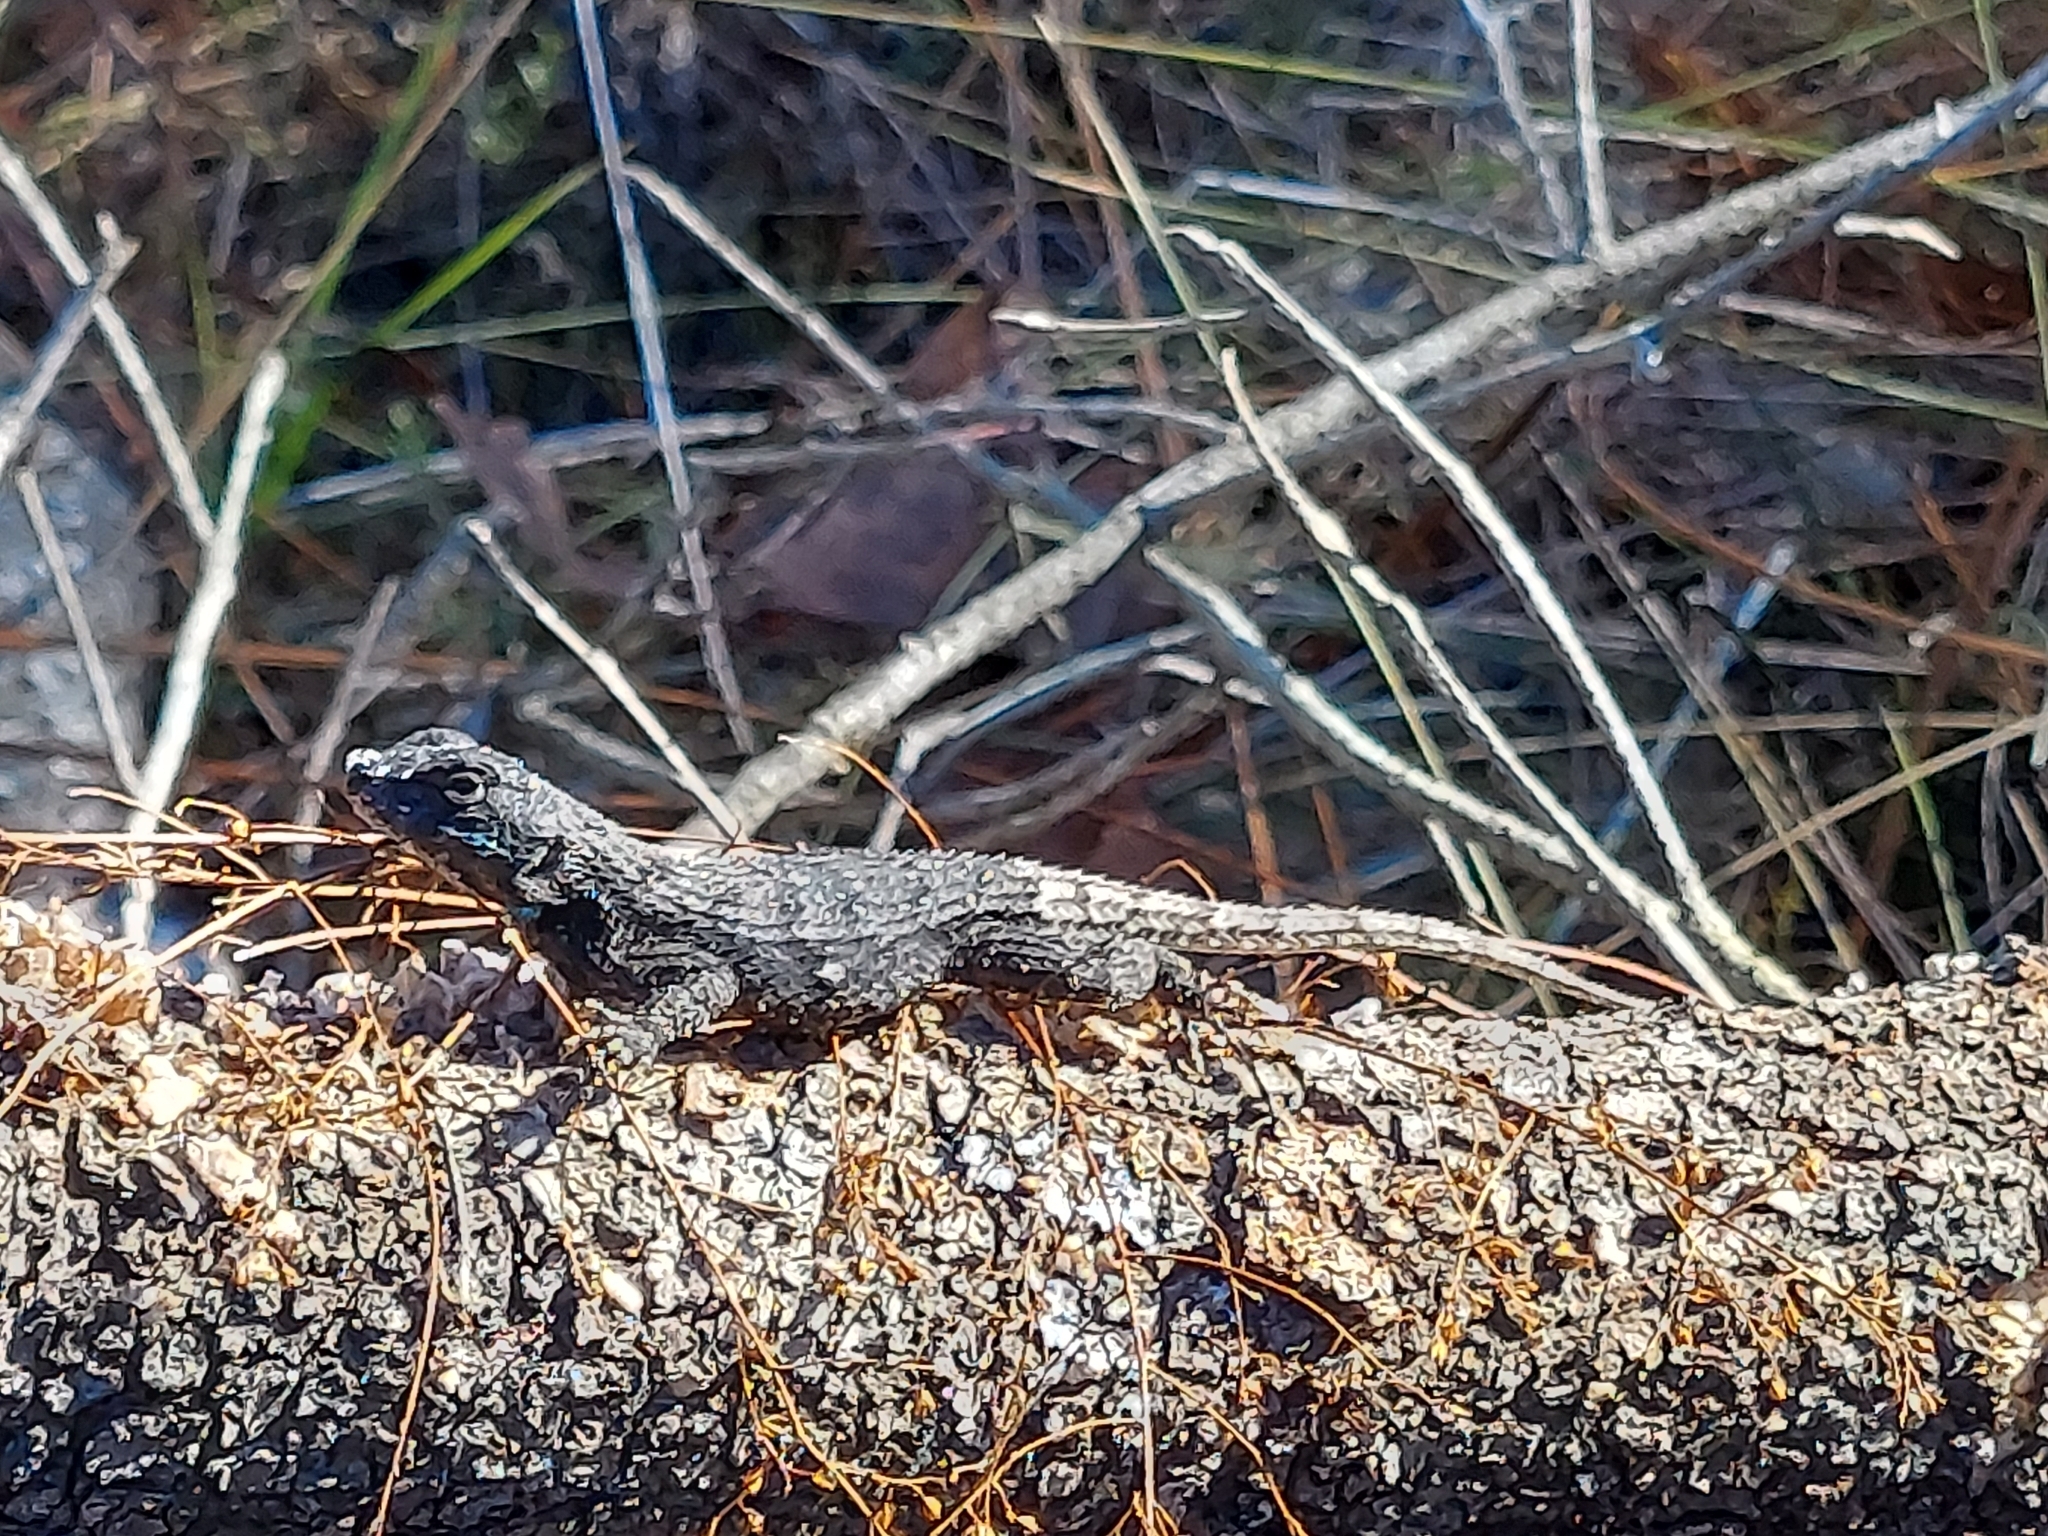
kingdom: Animalia
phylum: Chordata
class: Squamata
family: Phrynosomatidae
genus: Sceloporus
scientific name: Sceloporus undulatus
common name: Eastern fence lizard
